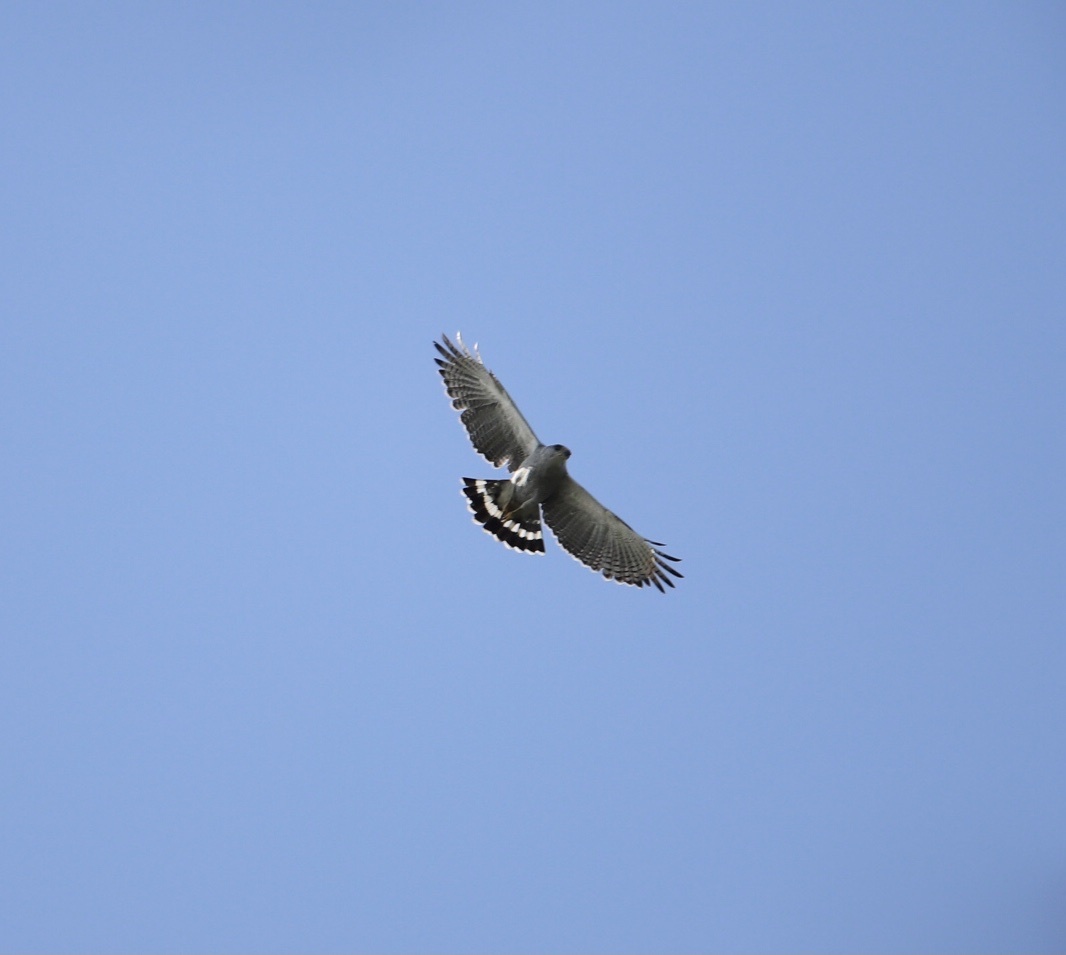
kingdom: Animalia
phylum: Chordata
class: Aves
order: Accipitriformes
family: Accipitridae
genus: Buteo
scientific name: Buteo nitidus
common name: Grey-lined hawk
